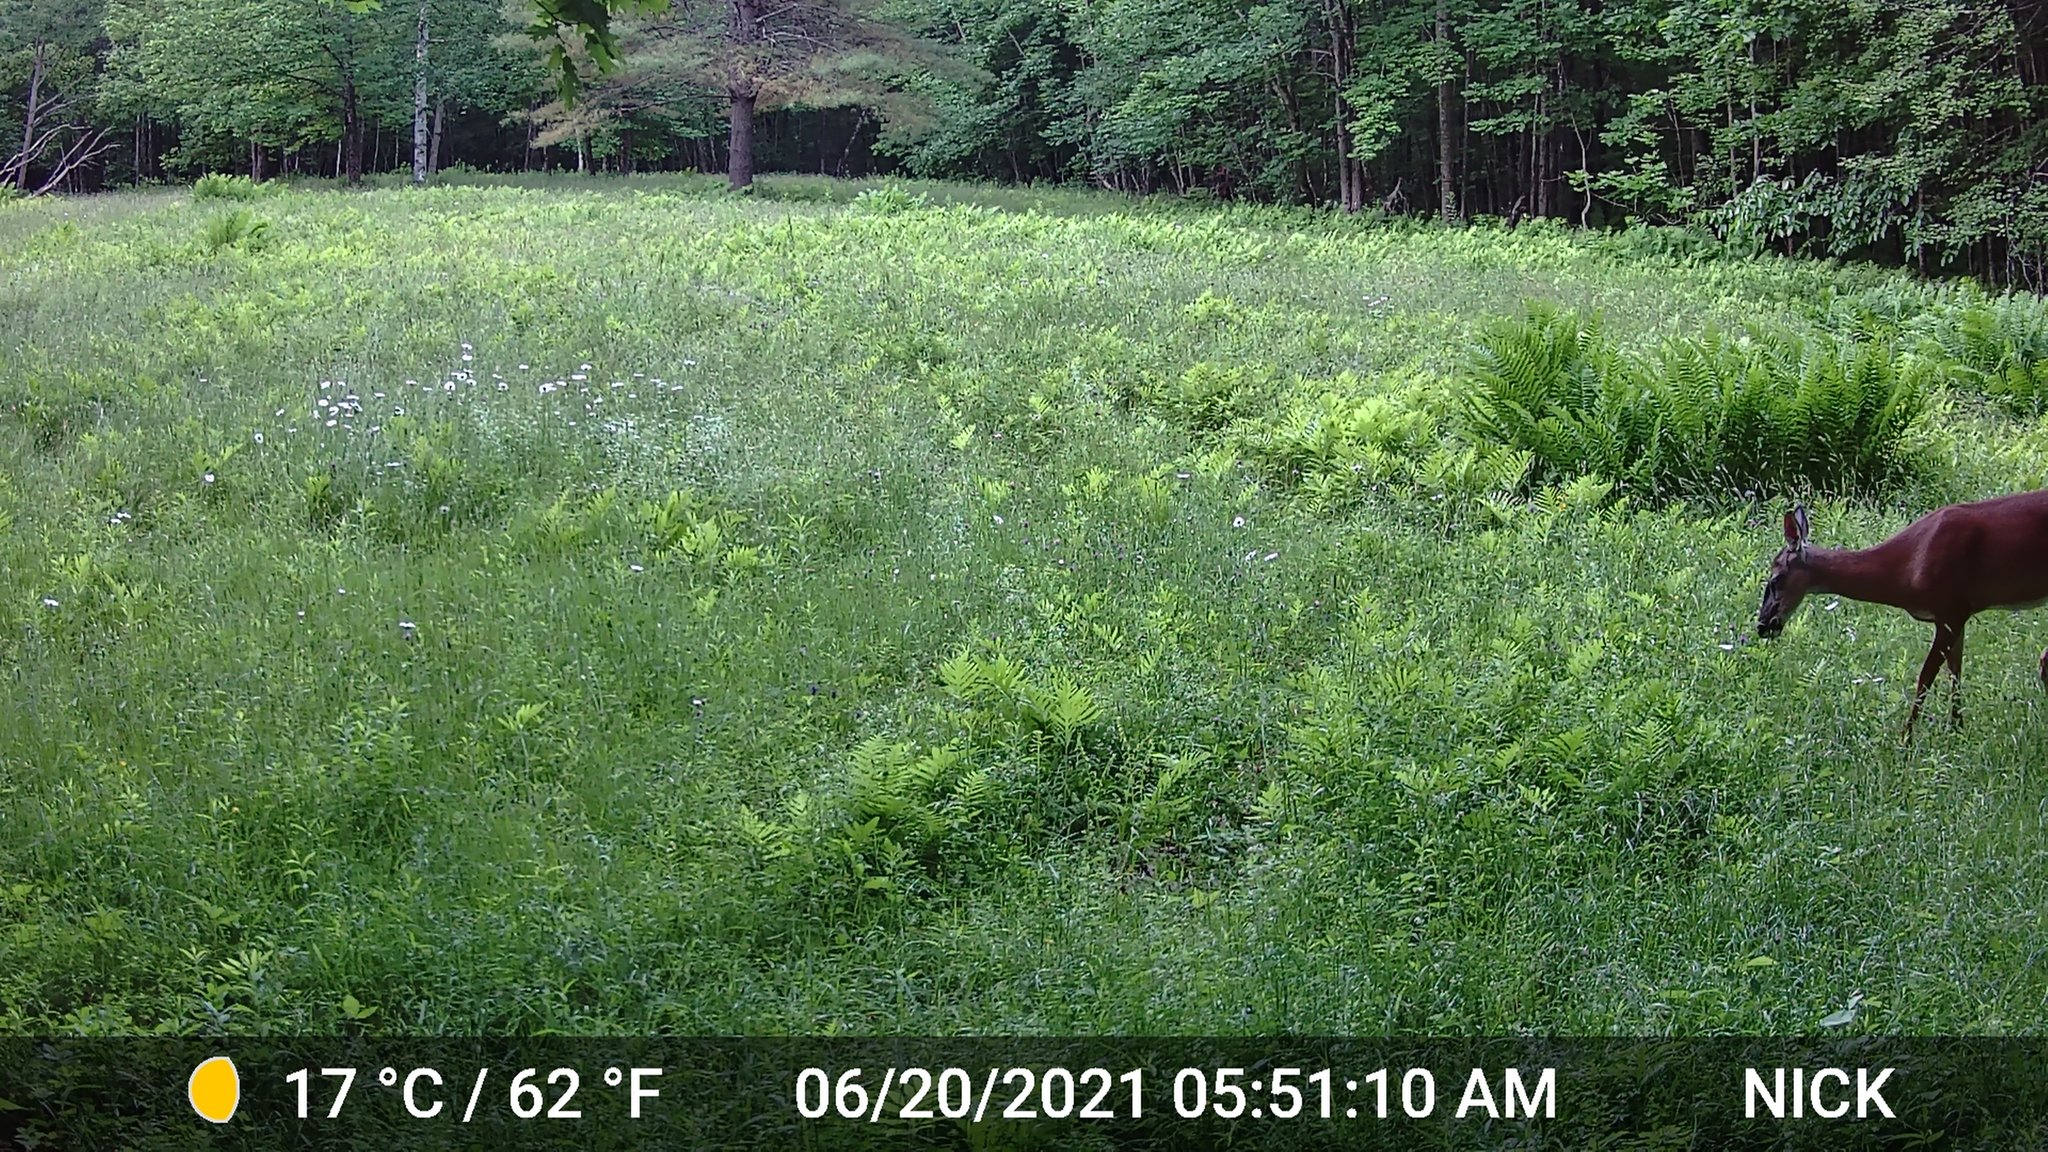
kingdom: Animalia
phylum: Chordata
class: Mammalia
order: Artiodactyla
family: Cervidae
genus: Odocoileus
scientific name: Odocoileus virginianus
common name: White-tailed deer
